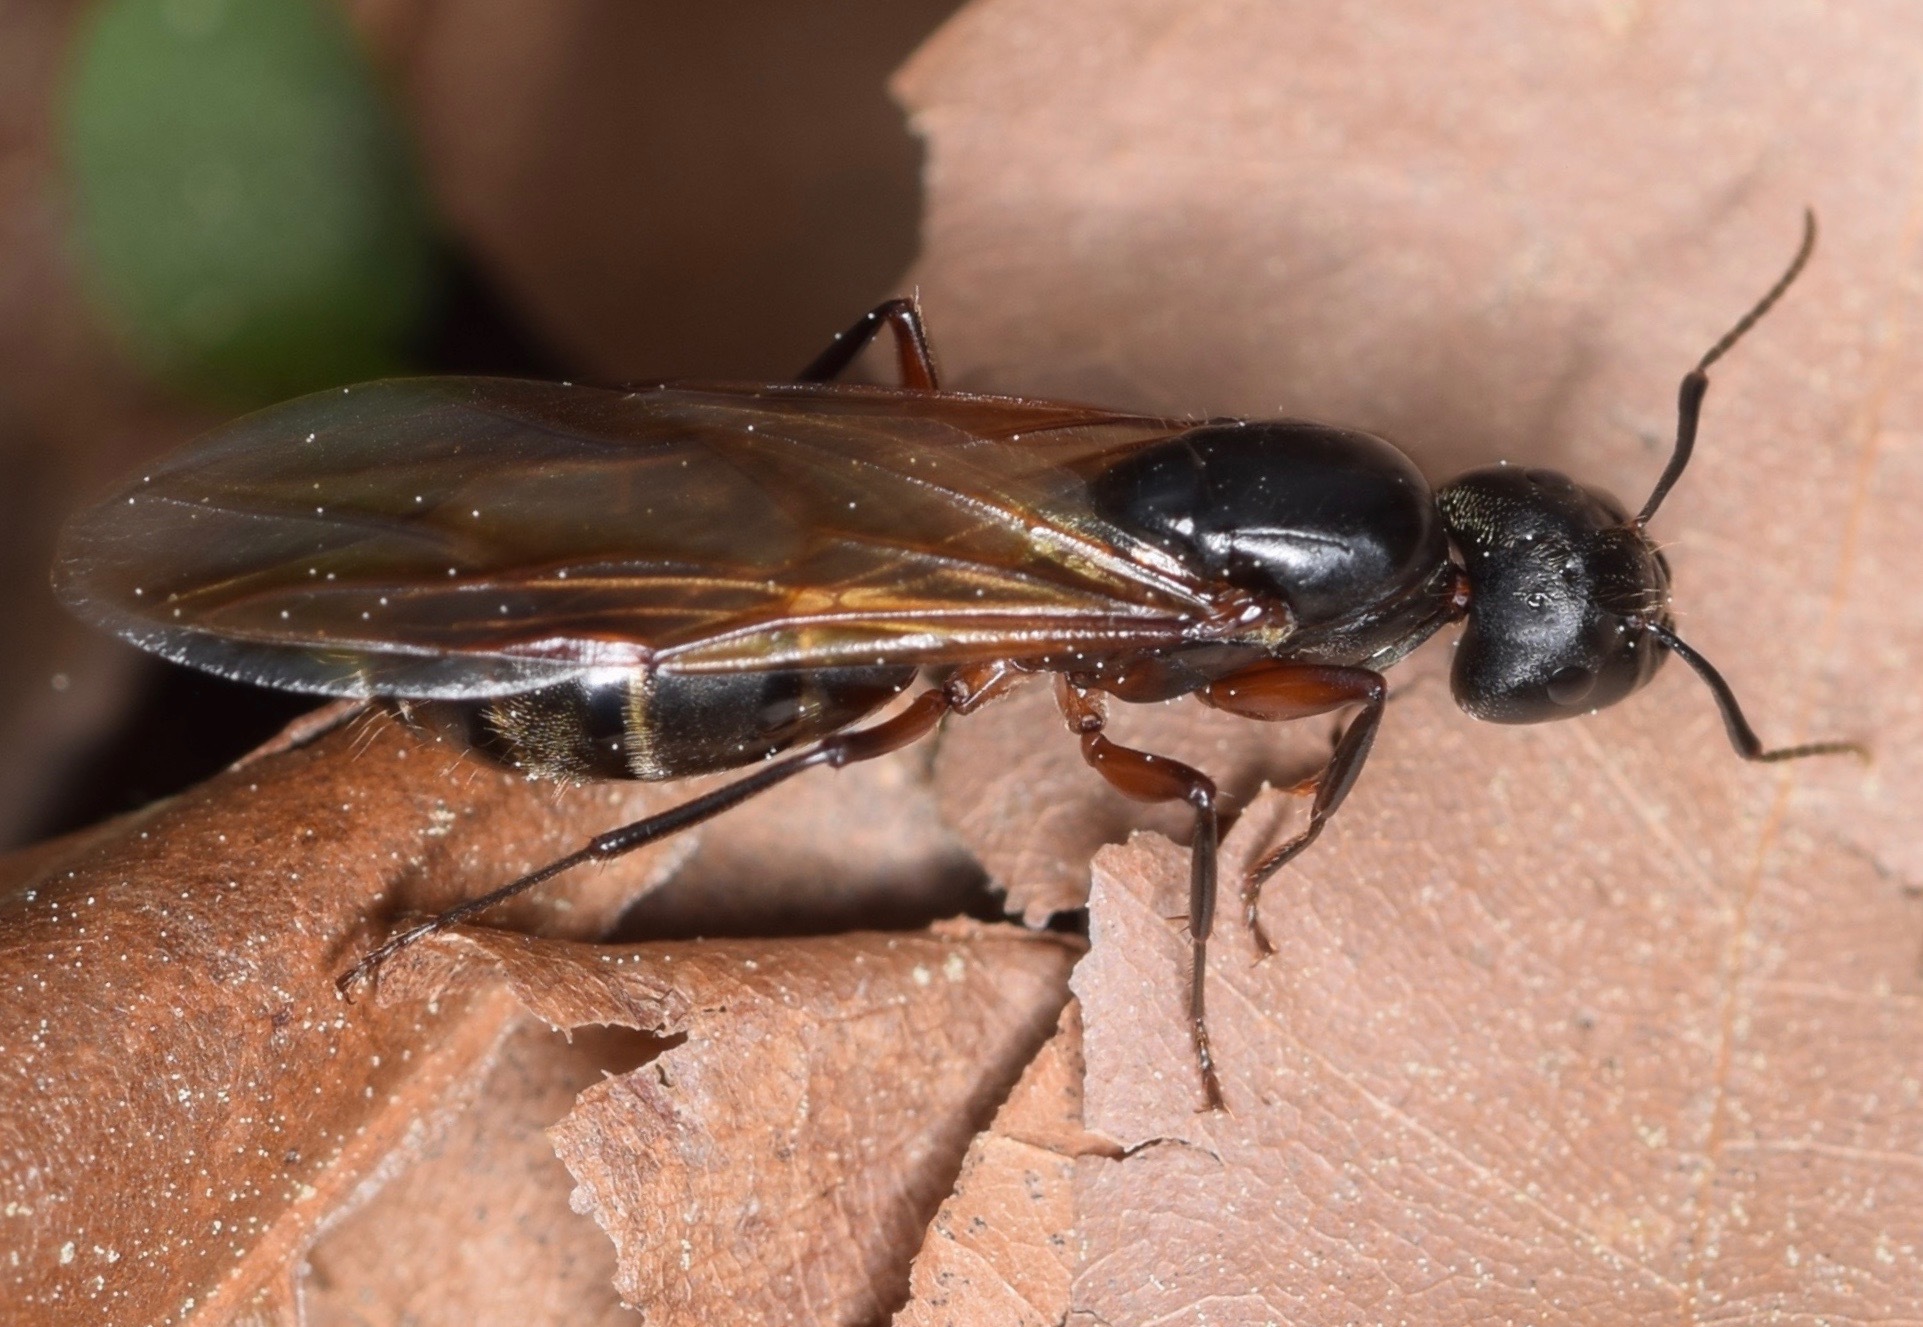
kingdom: Animalia
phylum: Arthropoda
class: Insecta
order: Hymenoptera
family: Formicidae
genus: Camponotus
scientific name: Camponotus chromaiodes
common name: Red carpenter ant
